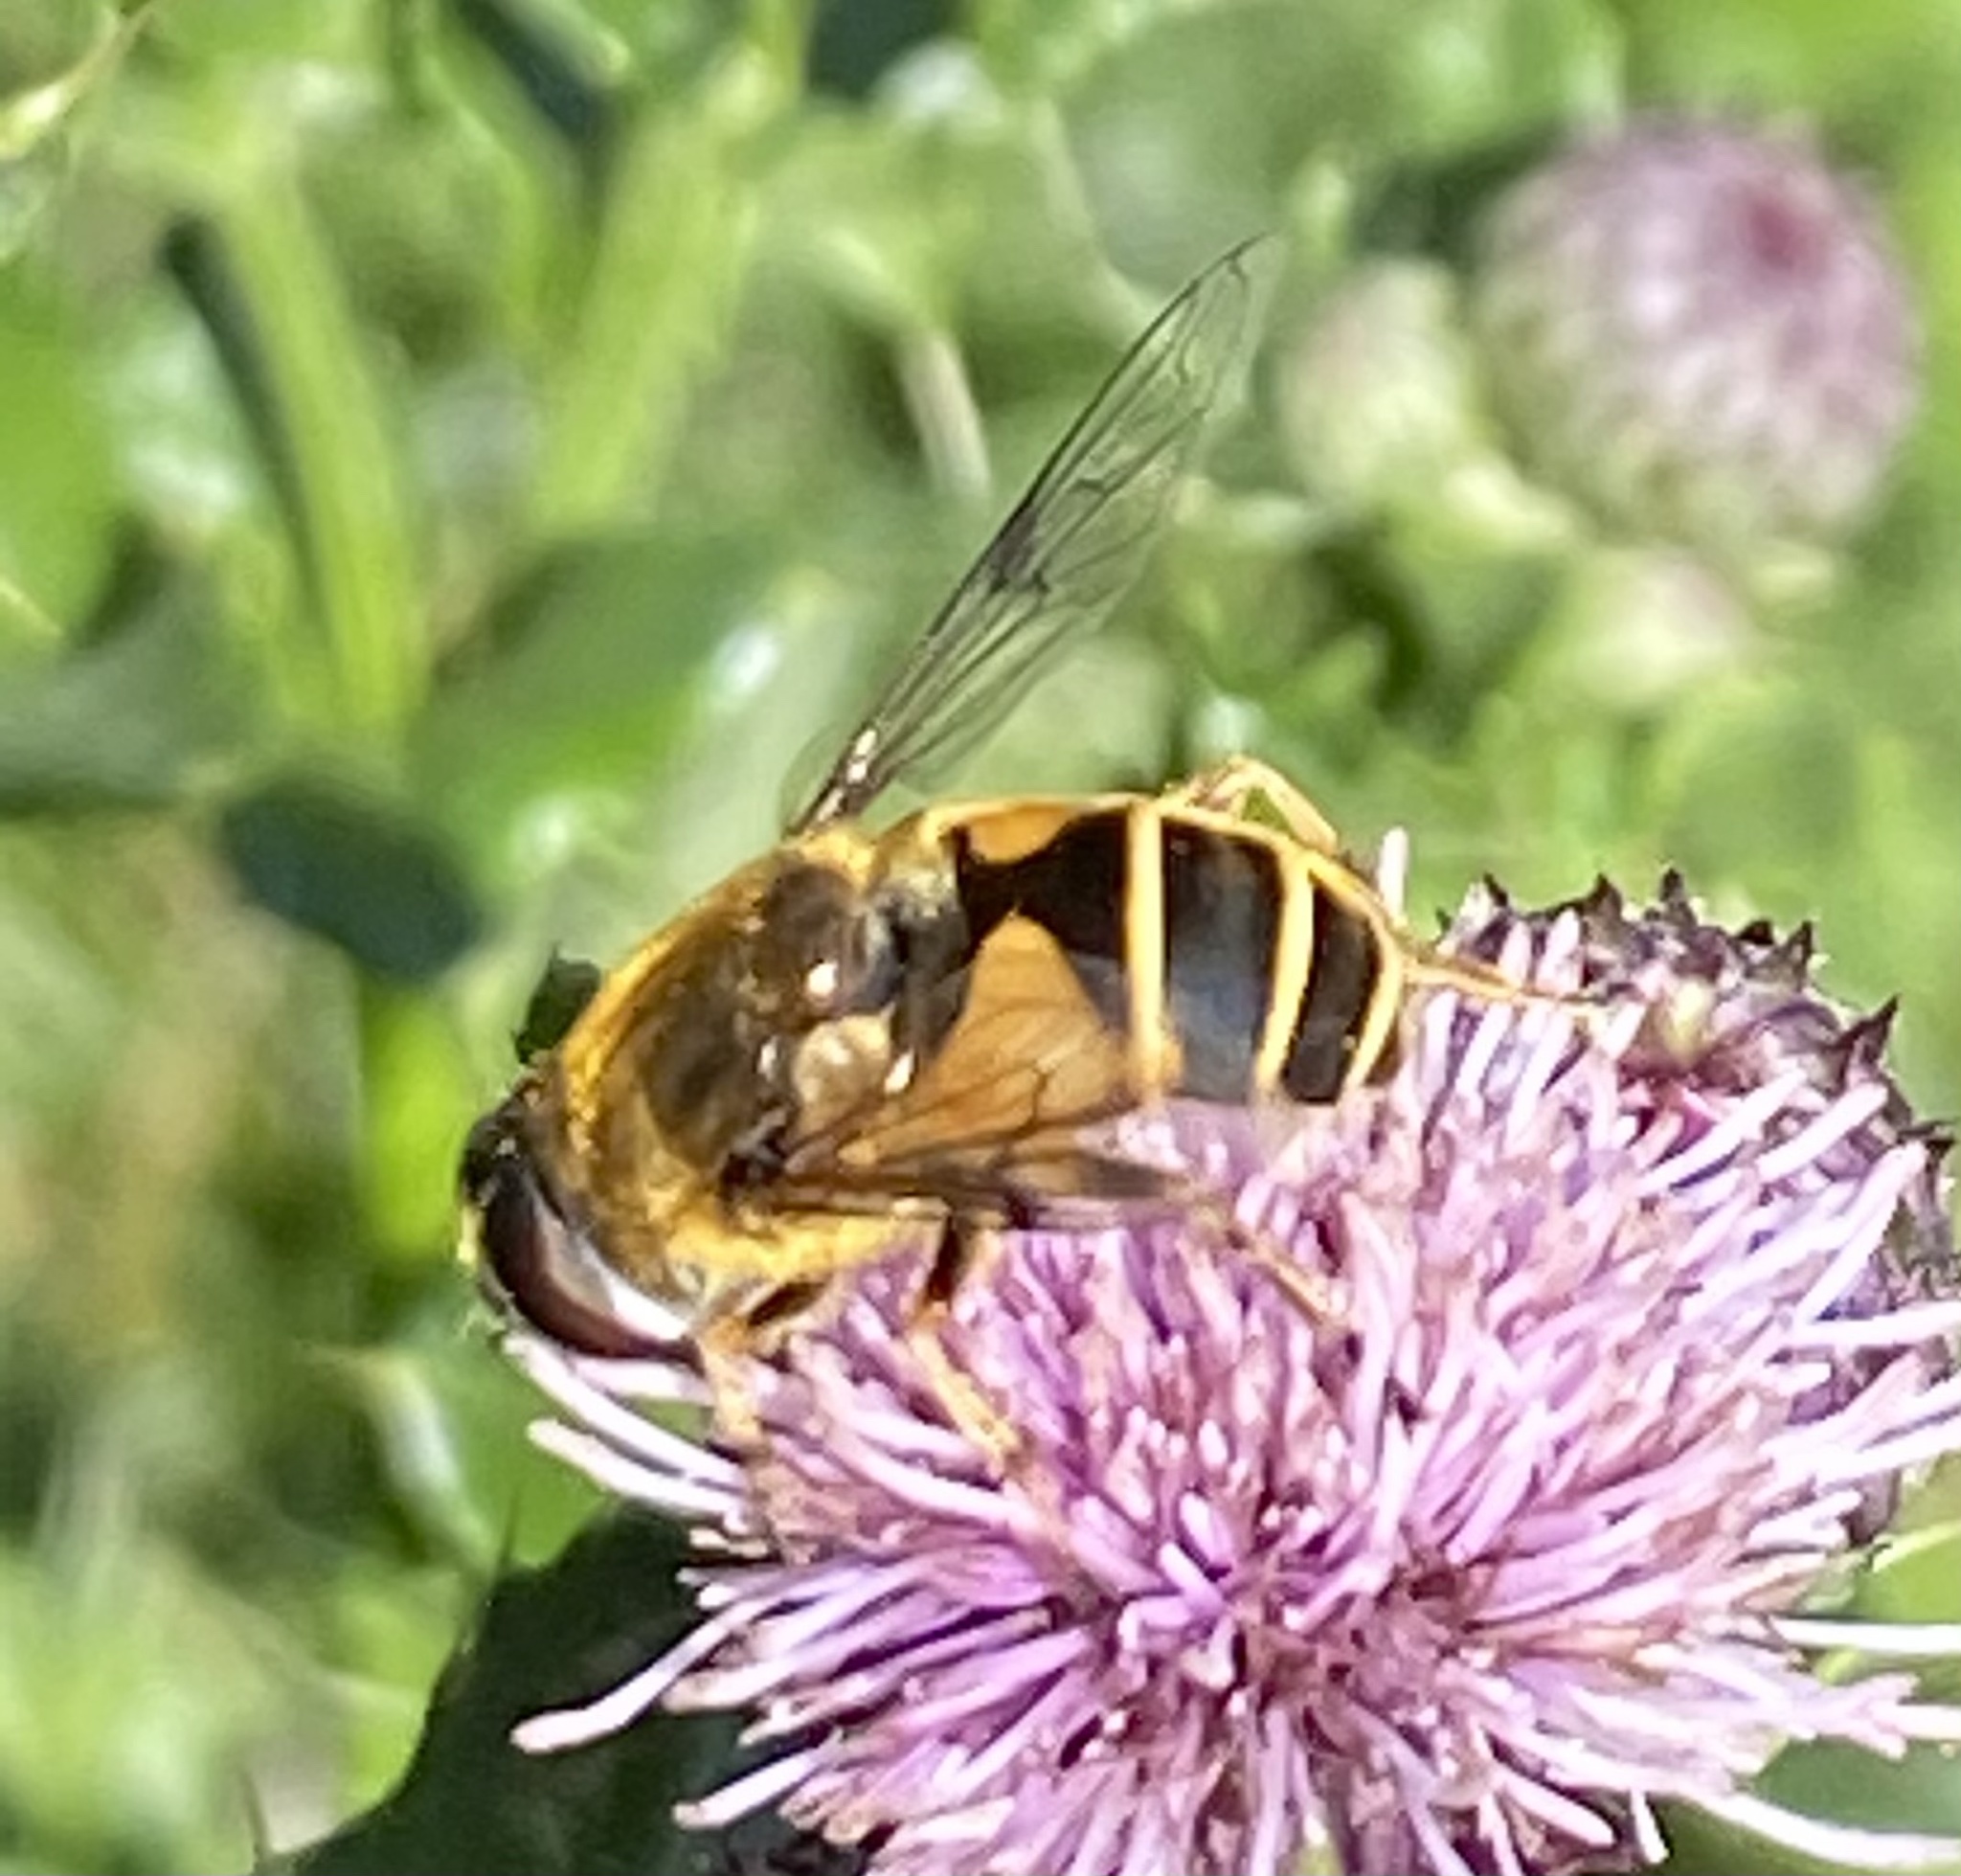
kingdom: Animalia
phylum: Arthropoda
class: Insecta
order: Diptera
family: Syrphidae
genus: Cheilosia
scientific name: Cheilosia morio
